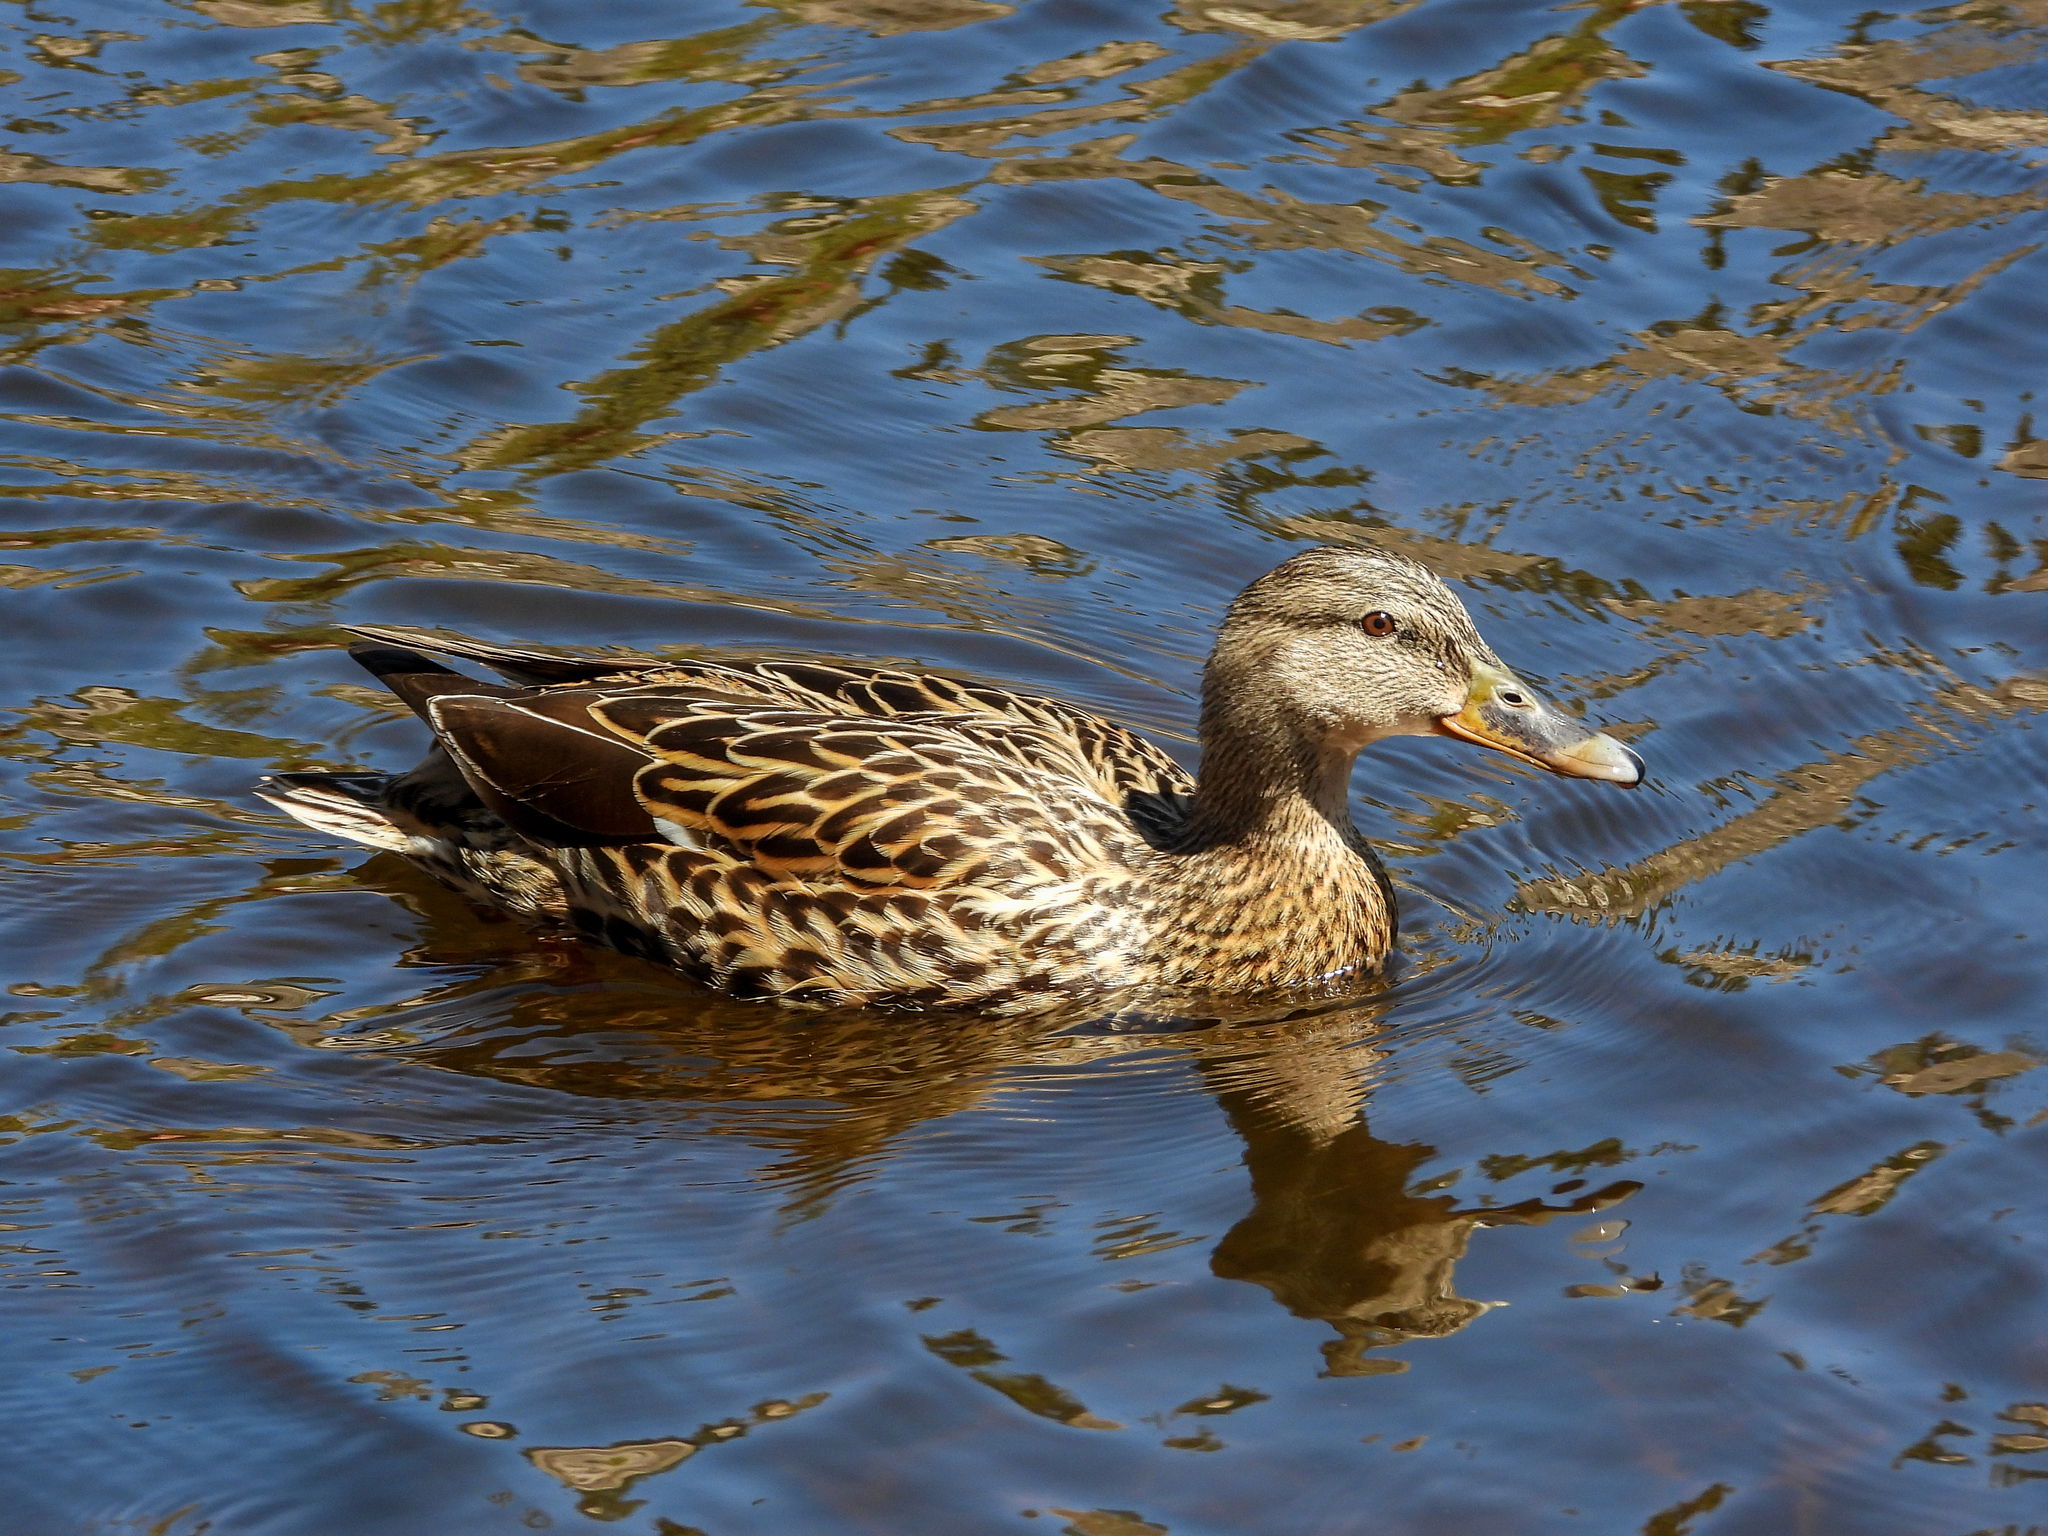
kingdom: Animalia
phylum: Chordata
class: Aves
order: Anseriformes
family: Anatidae
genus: Anas
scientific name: Anas platyrhynchos
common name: Mallard
